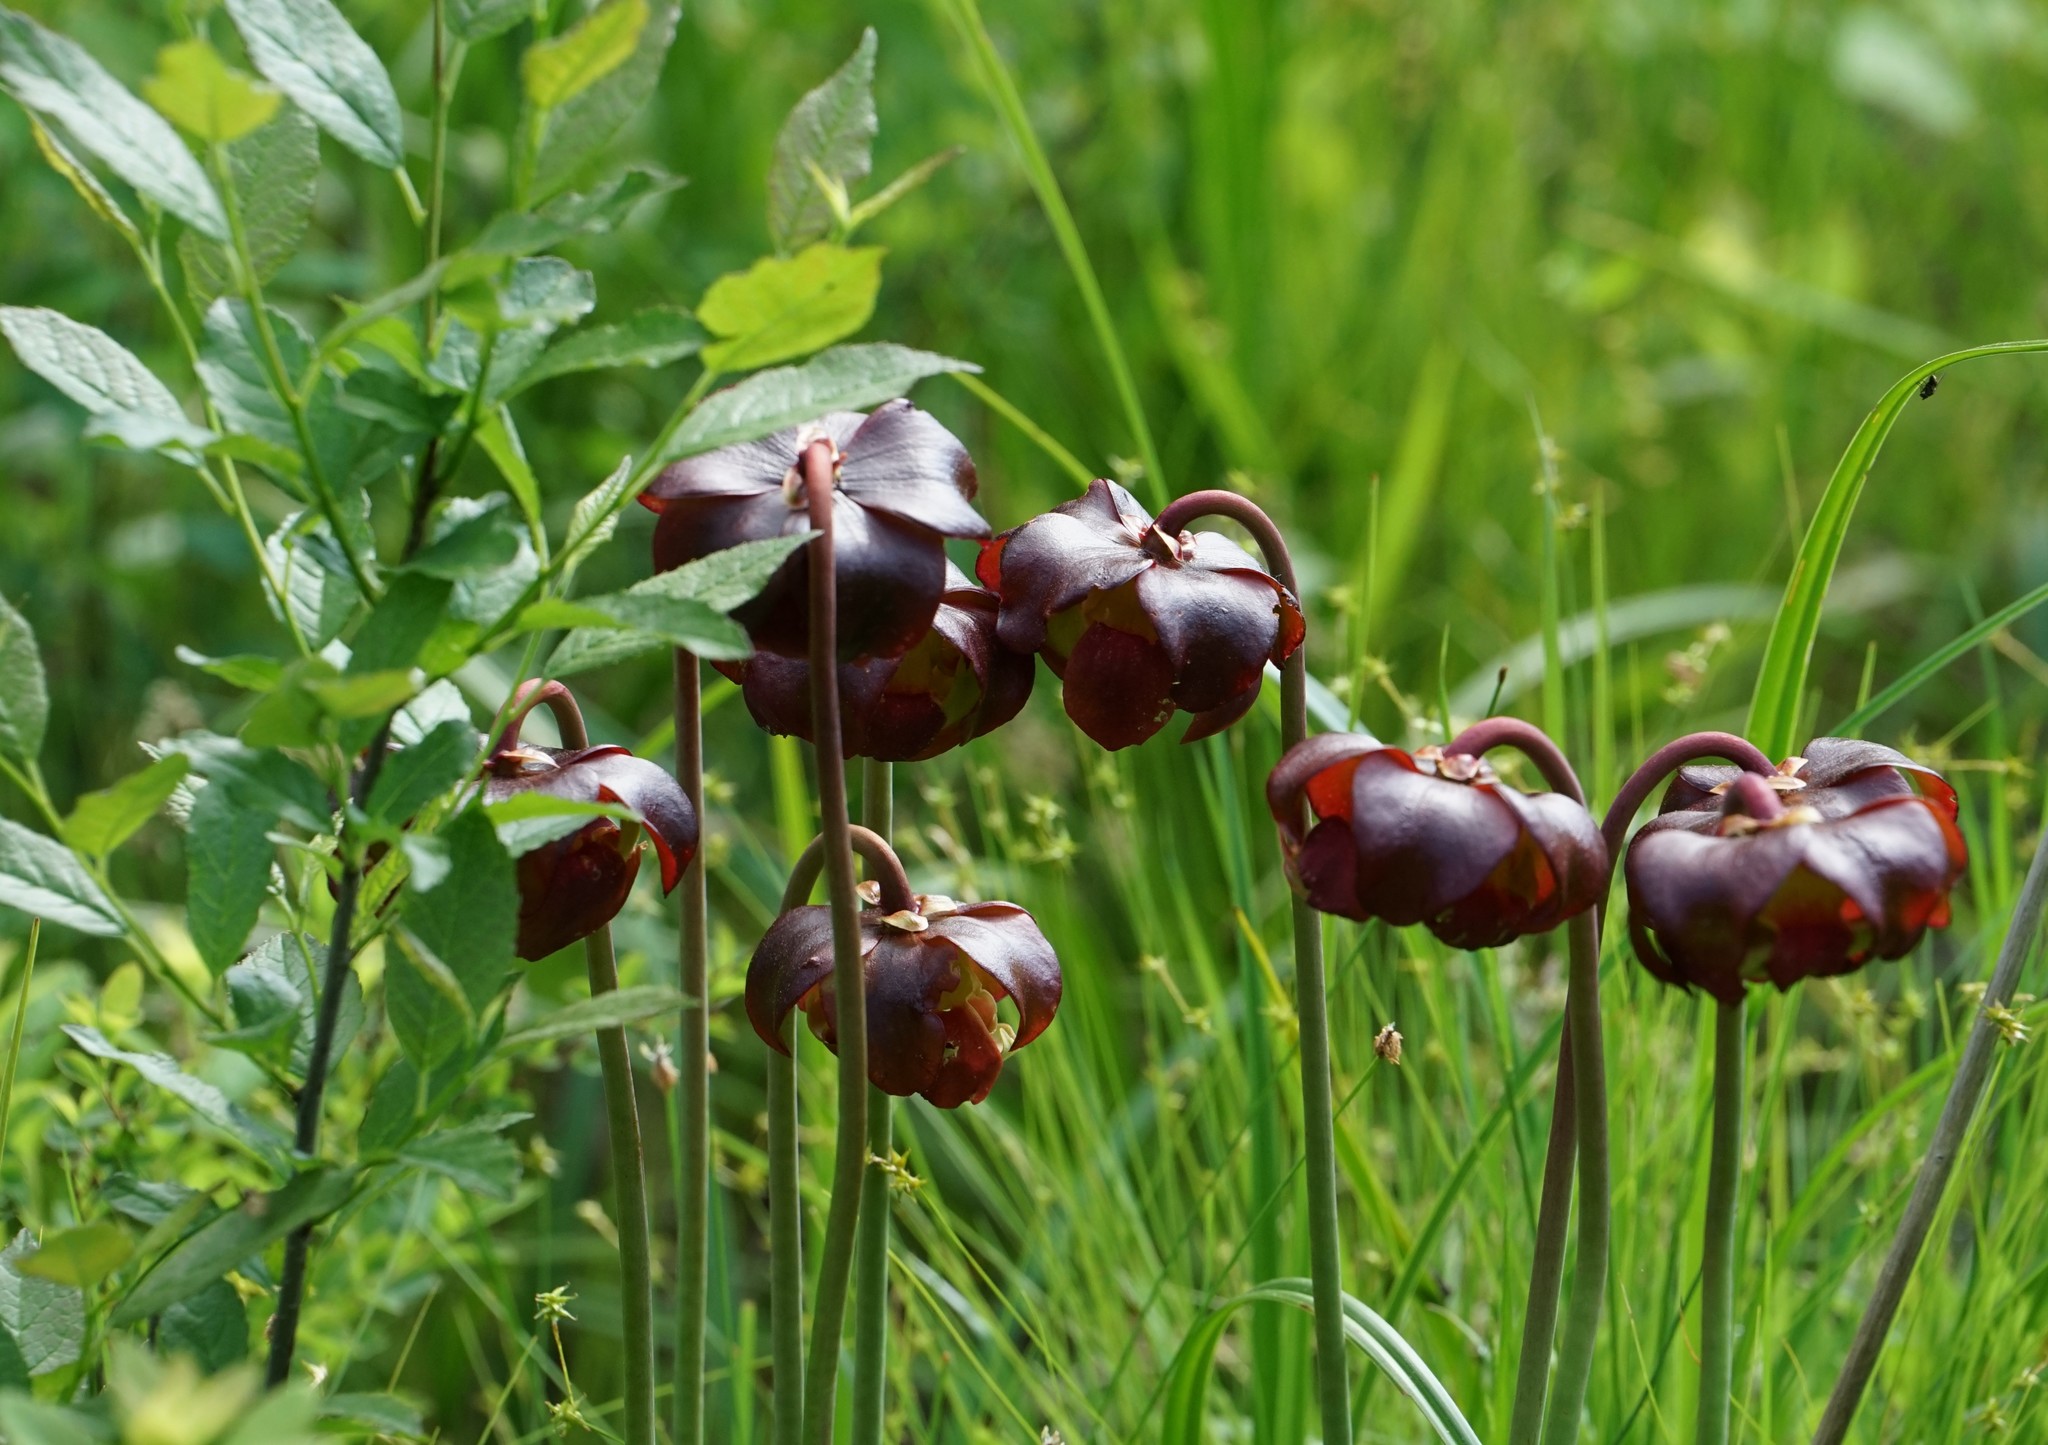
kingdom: Plantae
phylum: Tracheophyta
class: Magnoliopsida
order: Ericales
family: Sarraceniaceae
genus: Sarracenia
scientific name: Sarracenia purpurea
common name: Pitcherplant
